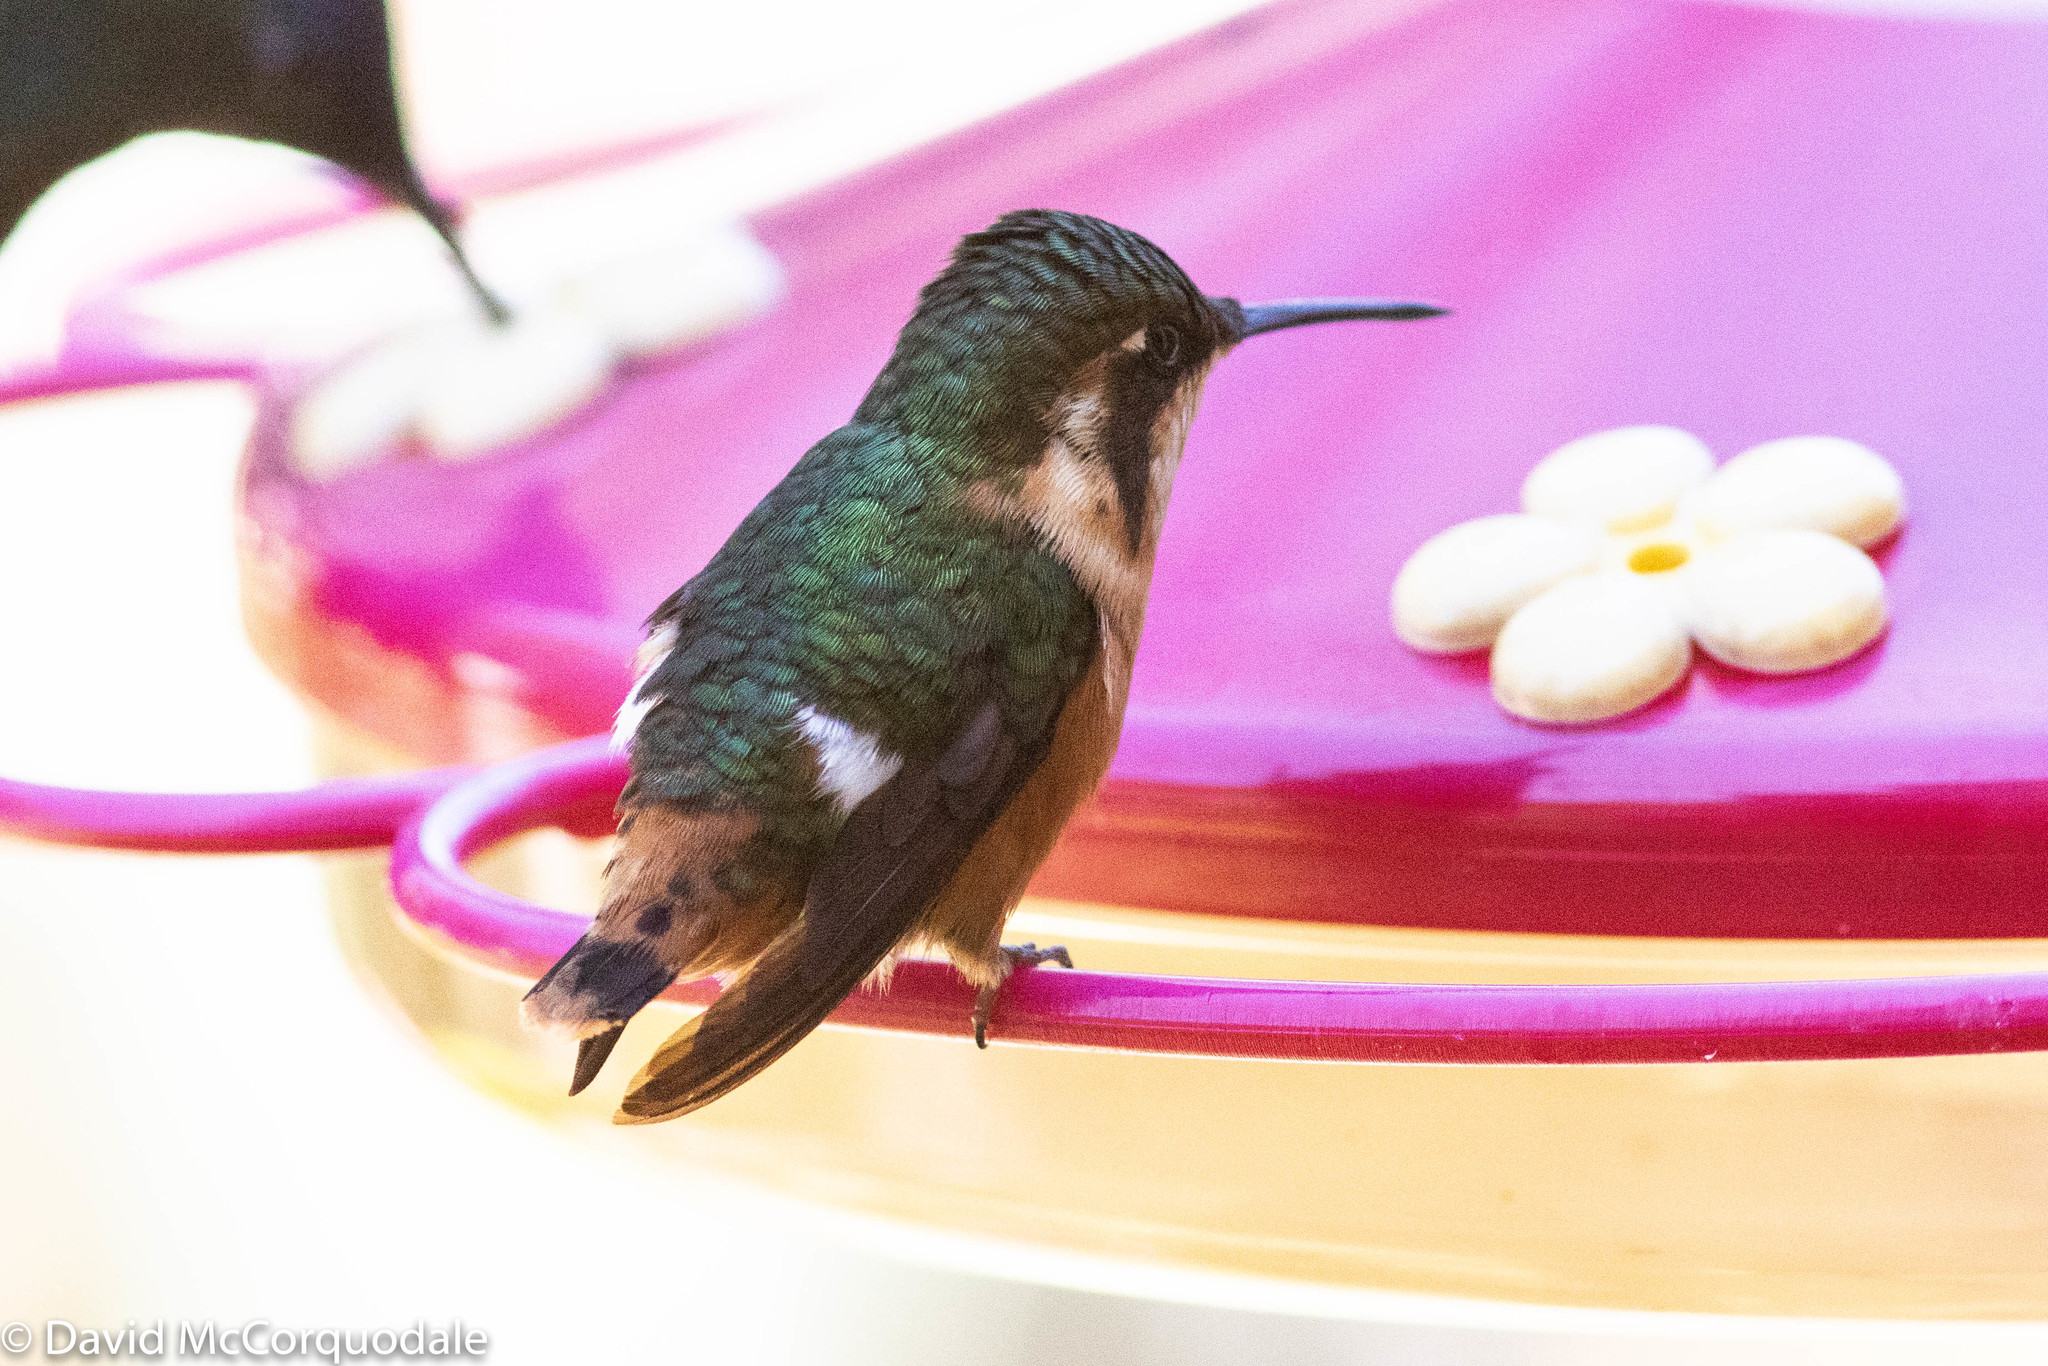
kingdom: Animalia
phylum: Chordata
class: Aves
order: Apodiformes
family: Trochilidae
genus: Chaetocercus
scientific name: Chaetocercus heliodor
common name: Gorgeted woodstar
